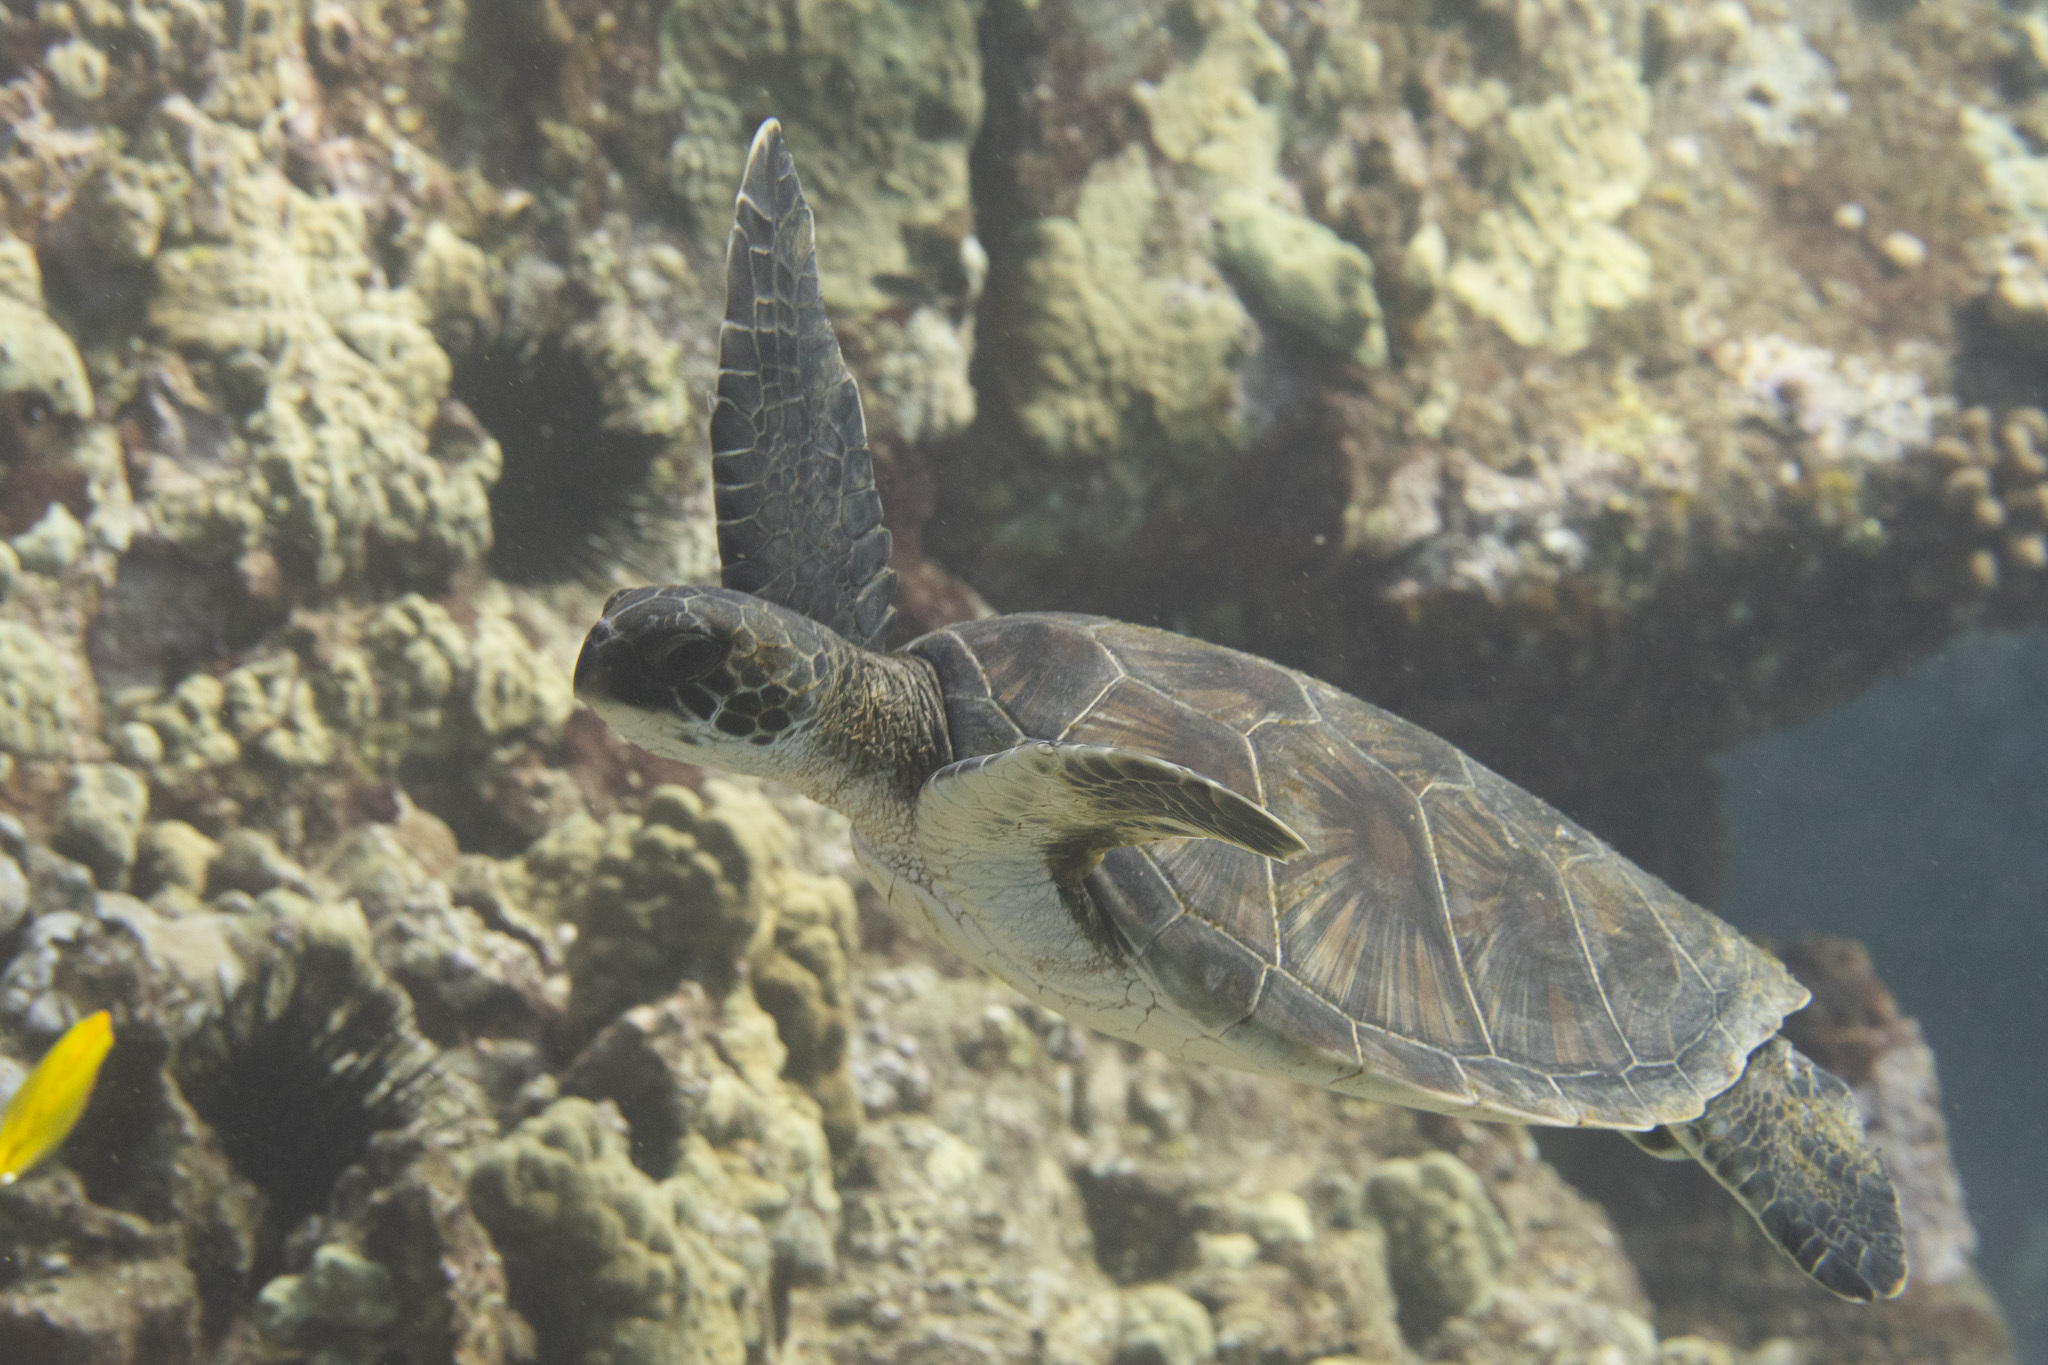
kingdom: Animalia
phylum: Chordata
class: Testudines
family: Cheloniidae
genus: Chelonia
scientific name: Chelonia mydas
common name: Green turtle
